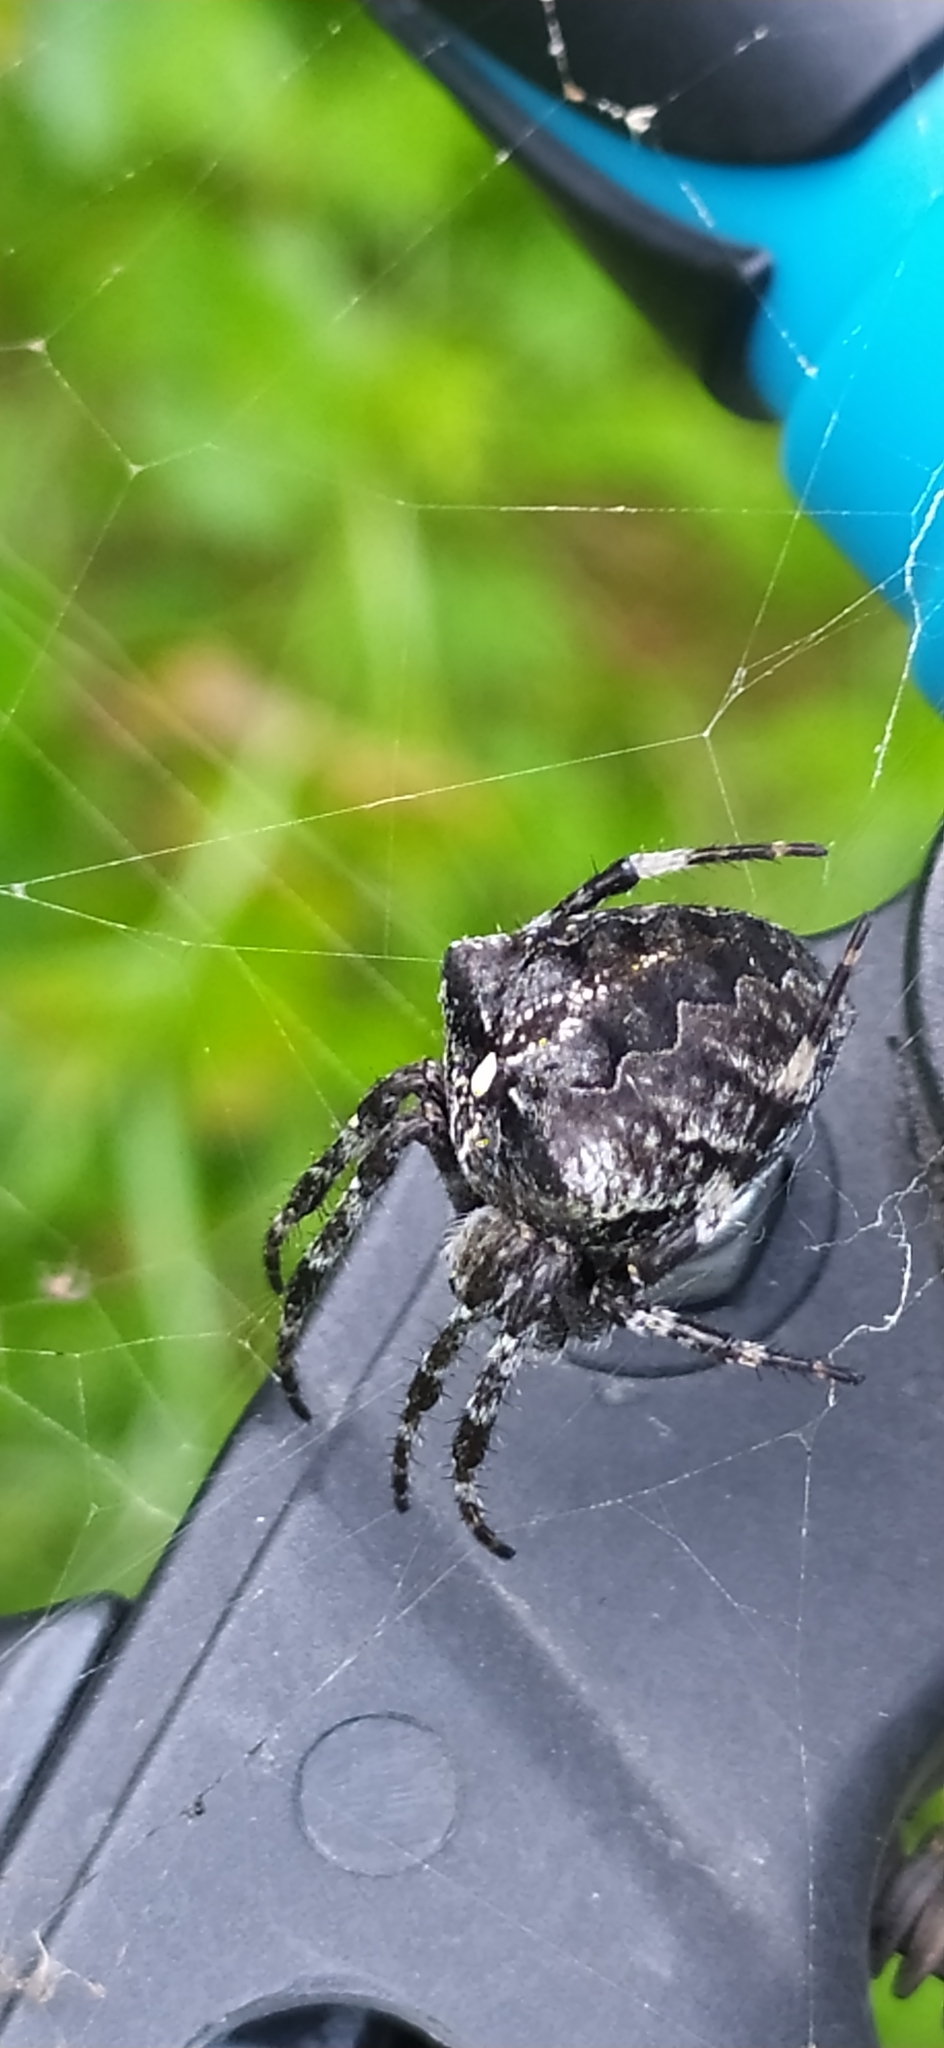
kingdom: Animalia
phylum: Arthropoda
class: Arachnida
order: Araneae
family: Araneidae
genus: Araneus
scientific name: Araneus angulatus
